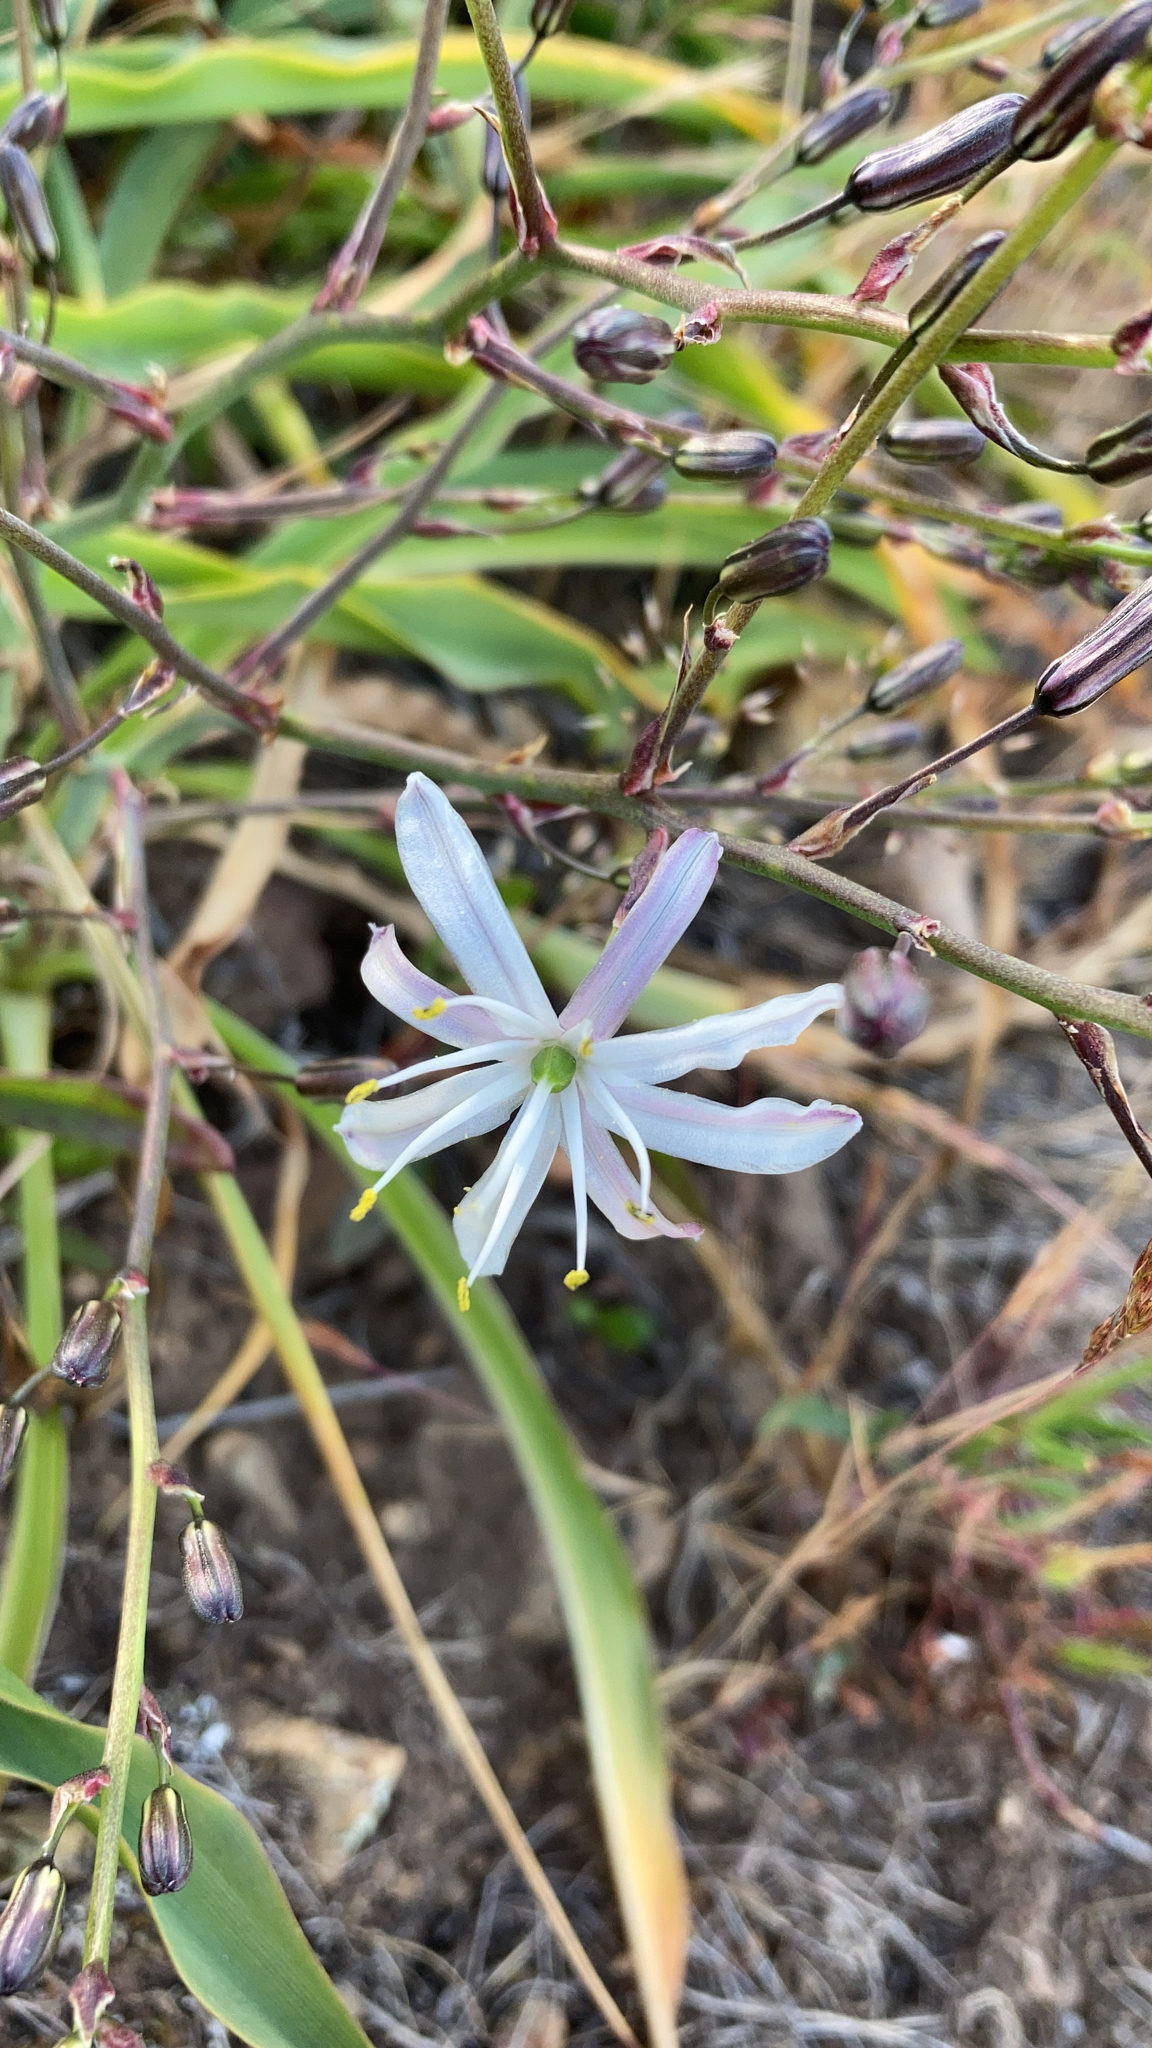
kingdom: Plantae
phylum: Tracheophyta
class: Liliopsida
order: Asparagales
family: Asparagaceae
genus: Chlorogalum
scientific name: Chlorogalum pomeridianum
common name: Amole
